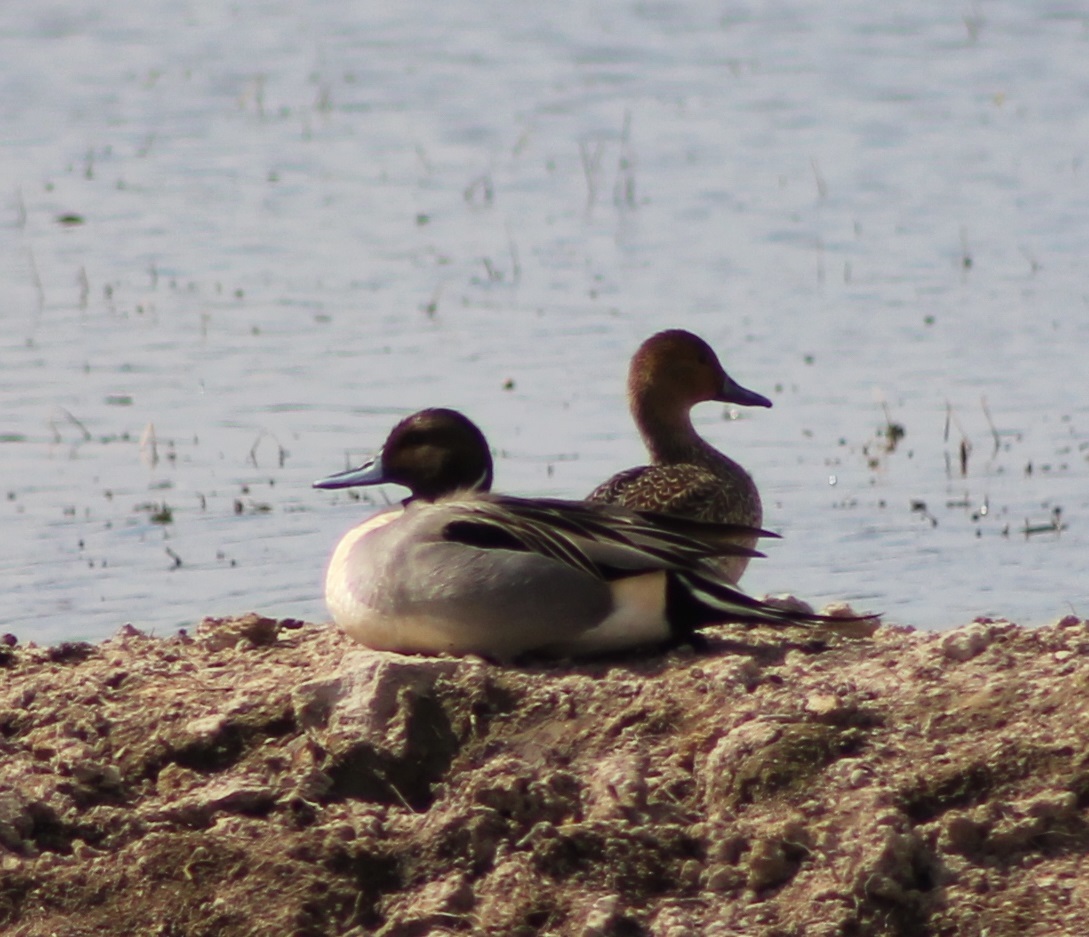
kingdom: Animalia
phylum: Chordata
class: Aves
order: Anseriformes
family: Anatidae
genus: Anas
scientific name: Anas acuta
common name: Northern pintail
